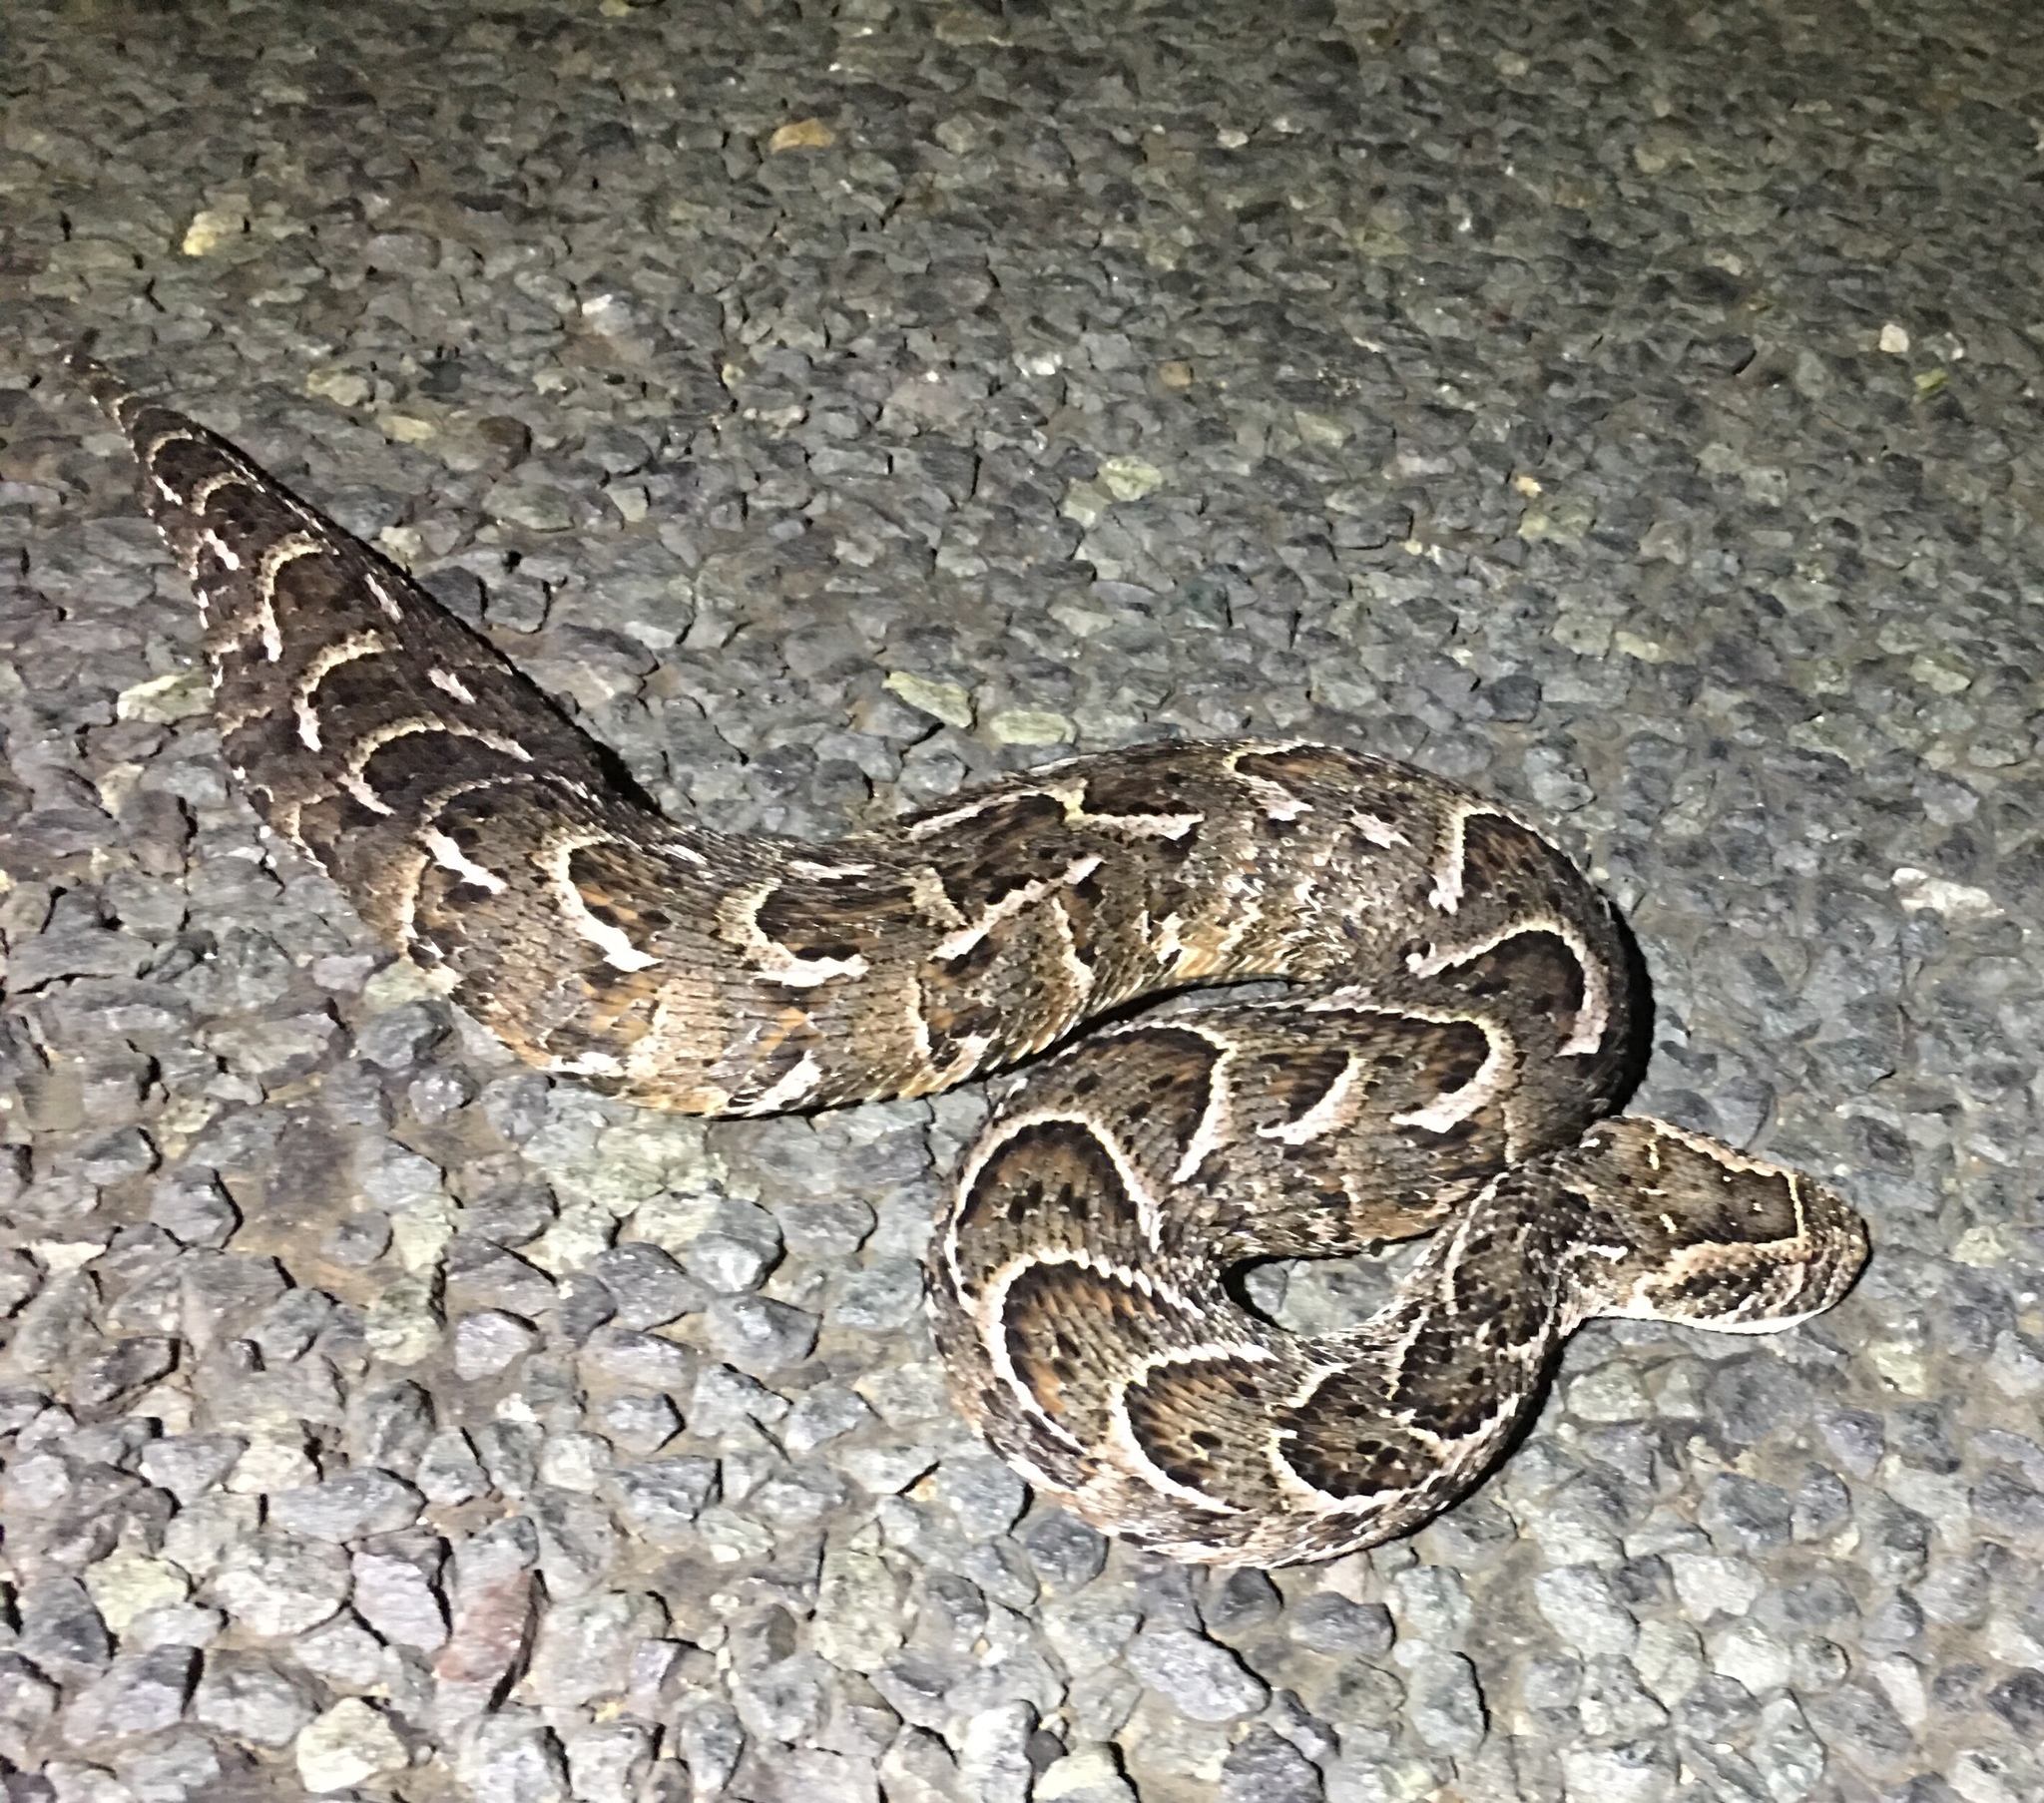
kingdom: Animalia
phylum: Chordata
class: Squamata
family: Viperidae
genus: Bitis
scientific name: Bitis arietans
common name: Puff adder
